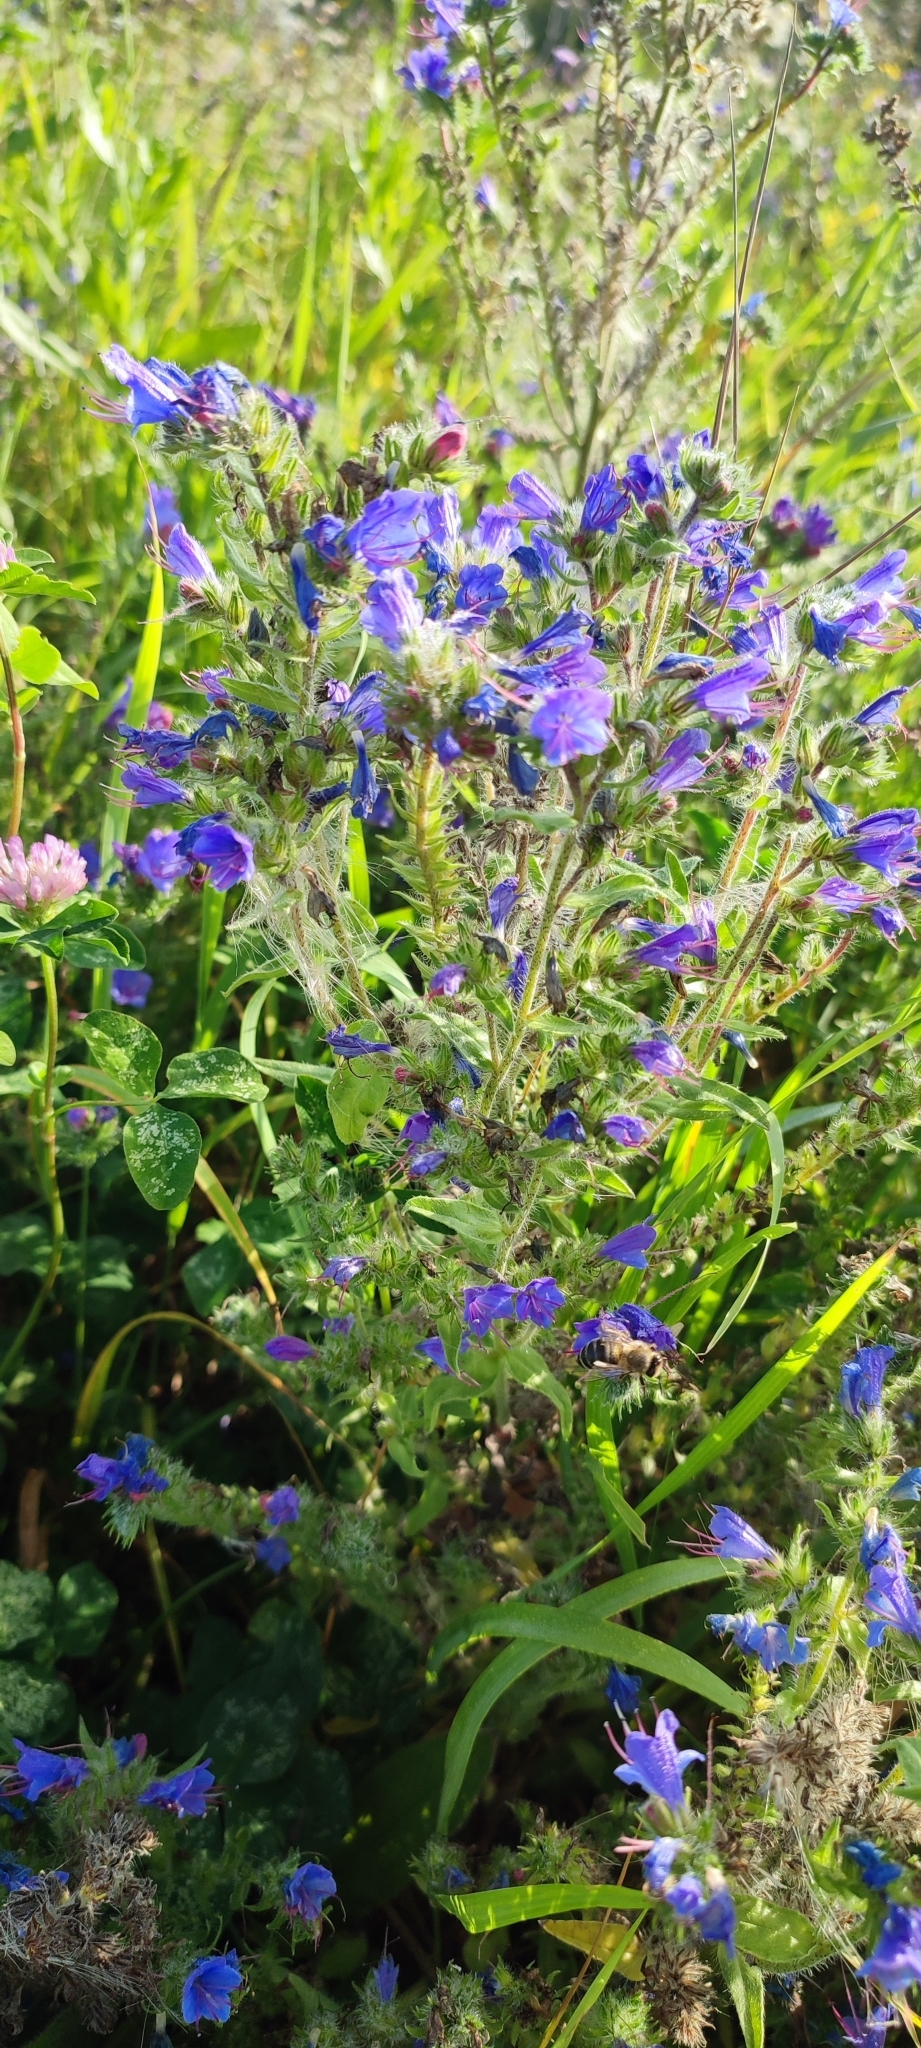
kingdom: Plantae
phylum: Tracheophyta
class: Magnoliopsida
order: Boraginales
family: Boraginaceae
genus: Echium
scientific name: Echium vulgare
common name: Common viper's bugloss
